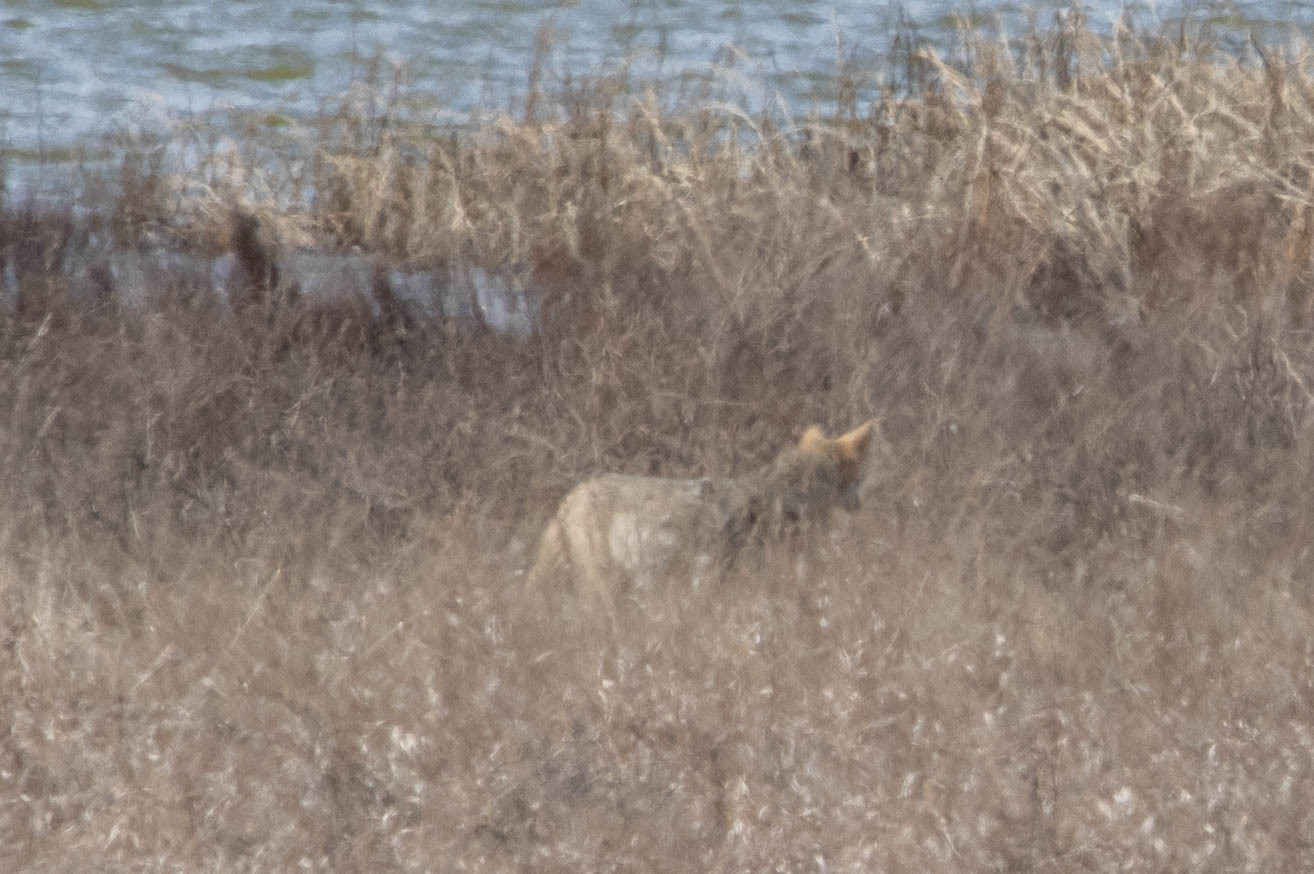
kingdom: Animalia
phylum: Chordata
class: Mammalia
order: Carnivora
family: Canidae
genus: Canis
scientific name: Canis latrans
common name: Coyote
